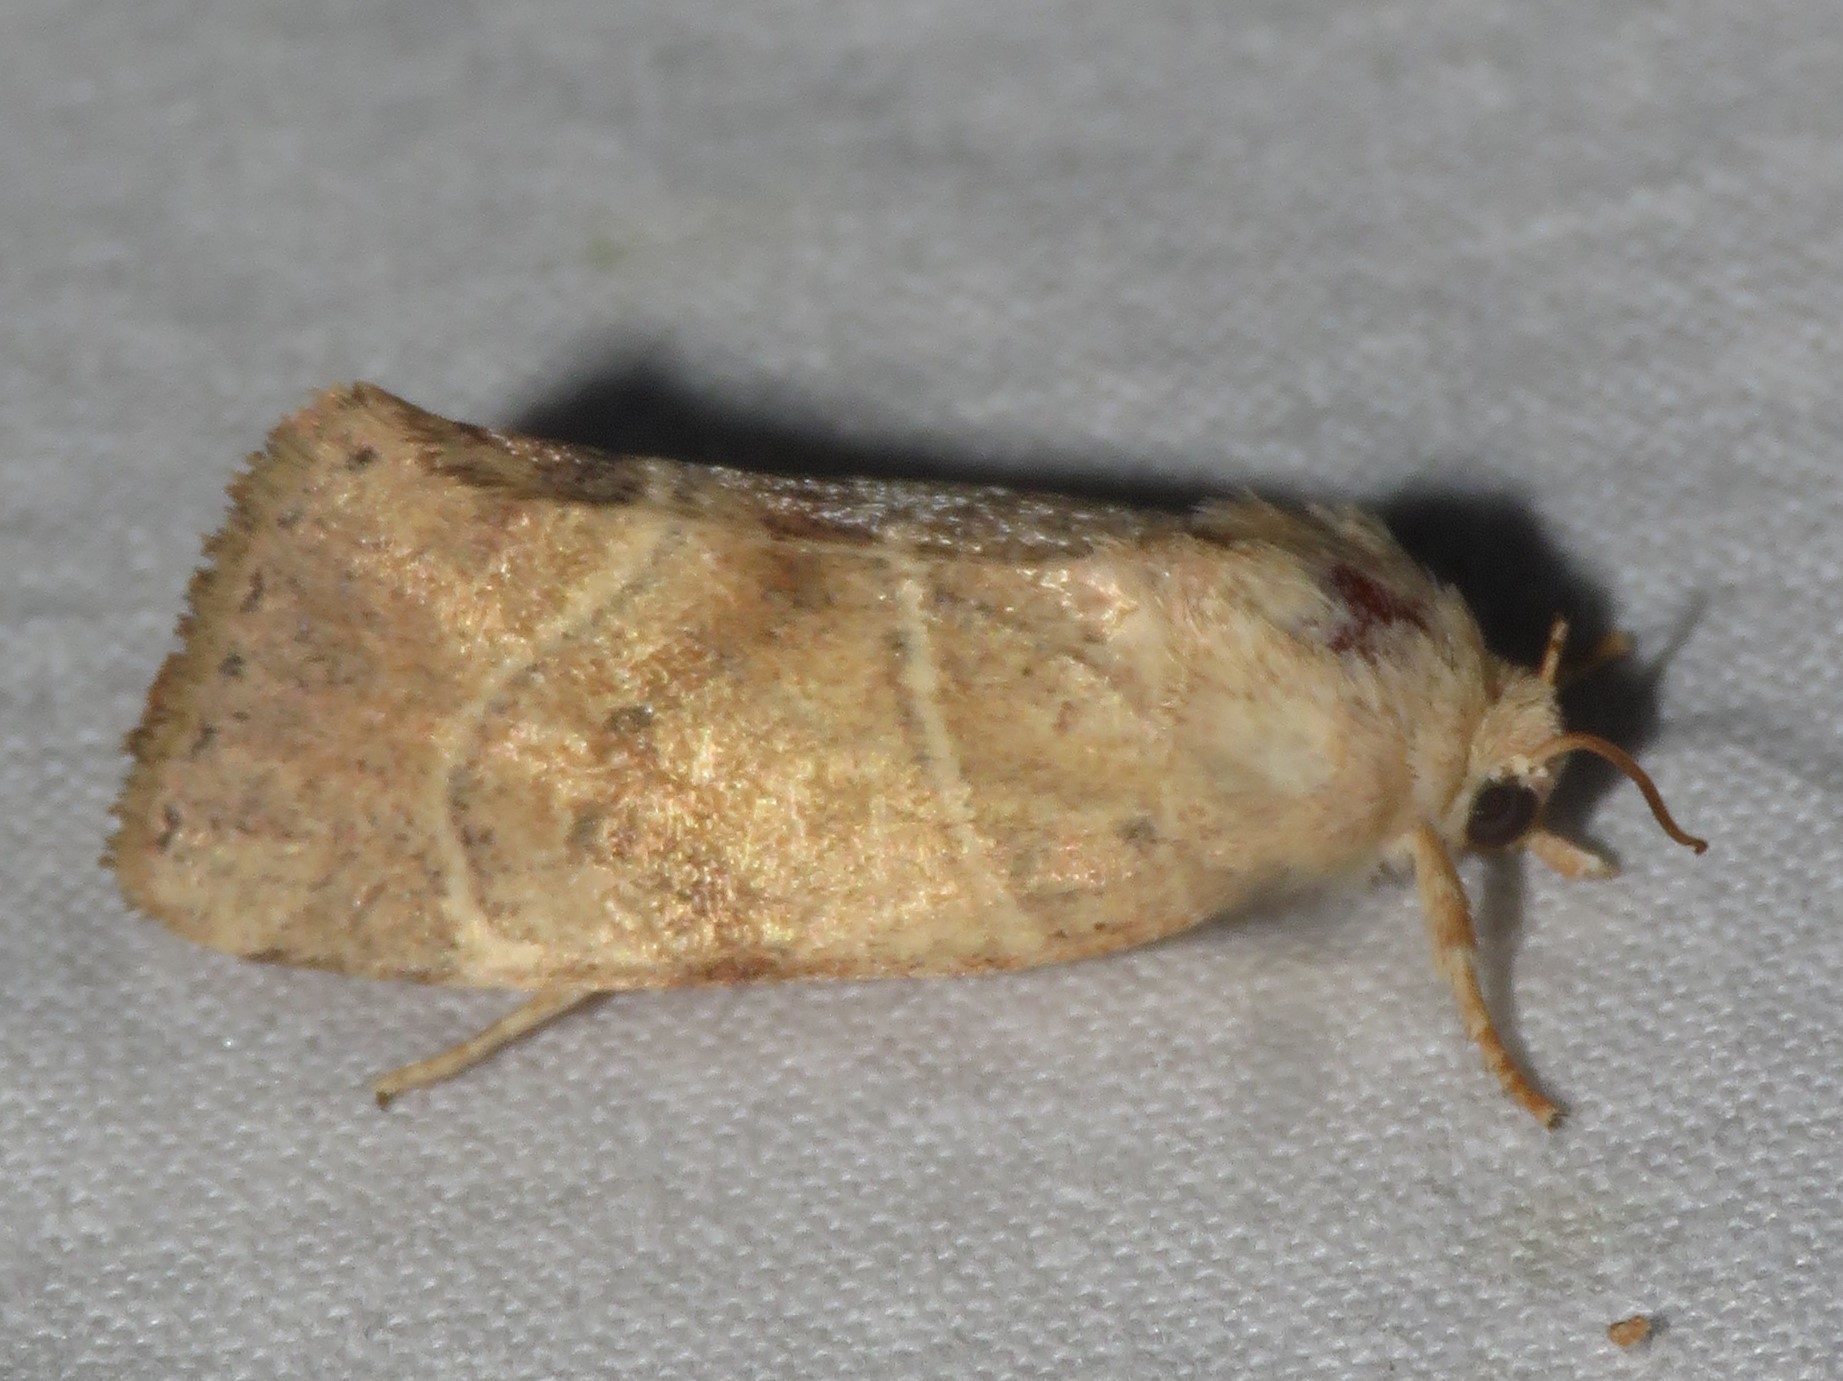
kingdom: Animalia
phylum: Arthropoda
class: Insecta
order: Lepidoptera
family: Noctuidae
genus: Cosmia
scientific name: Cosmia calami
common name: American dun-bar moth
